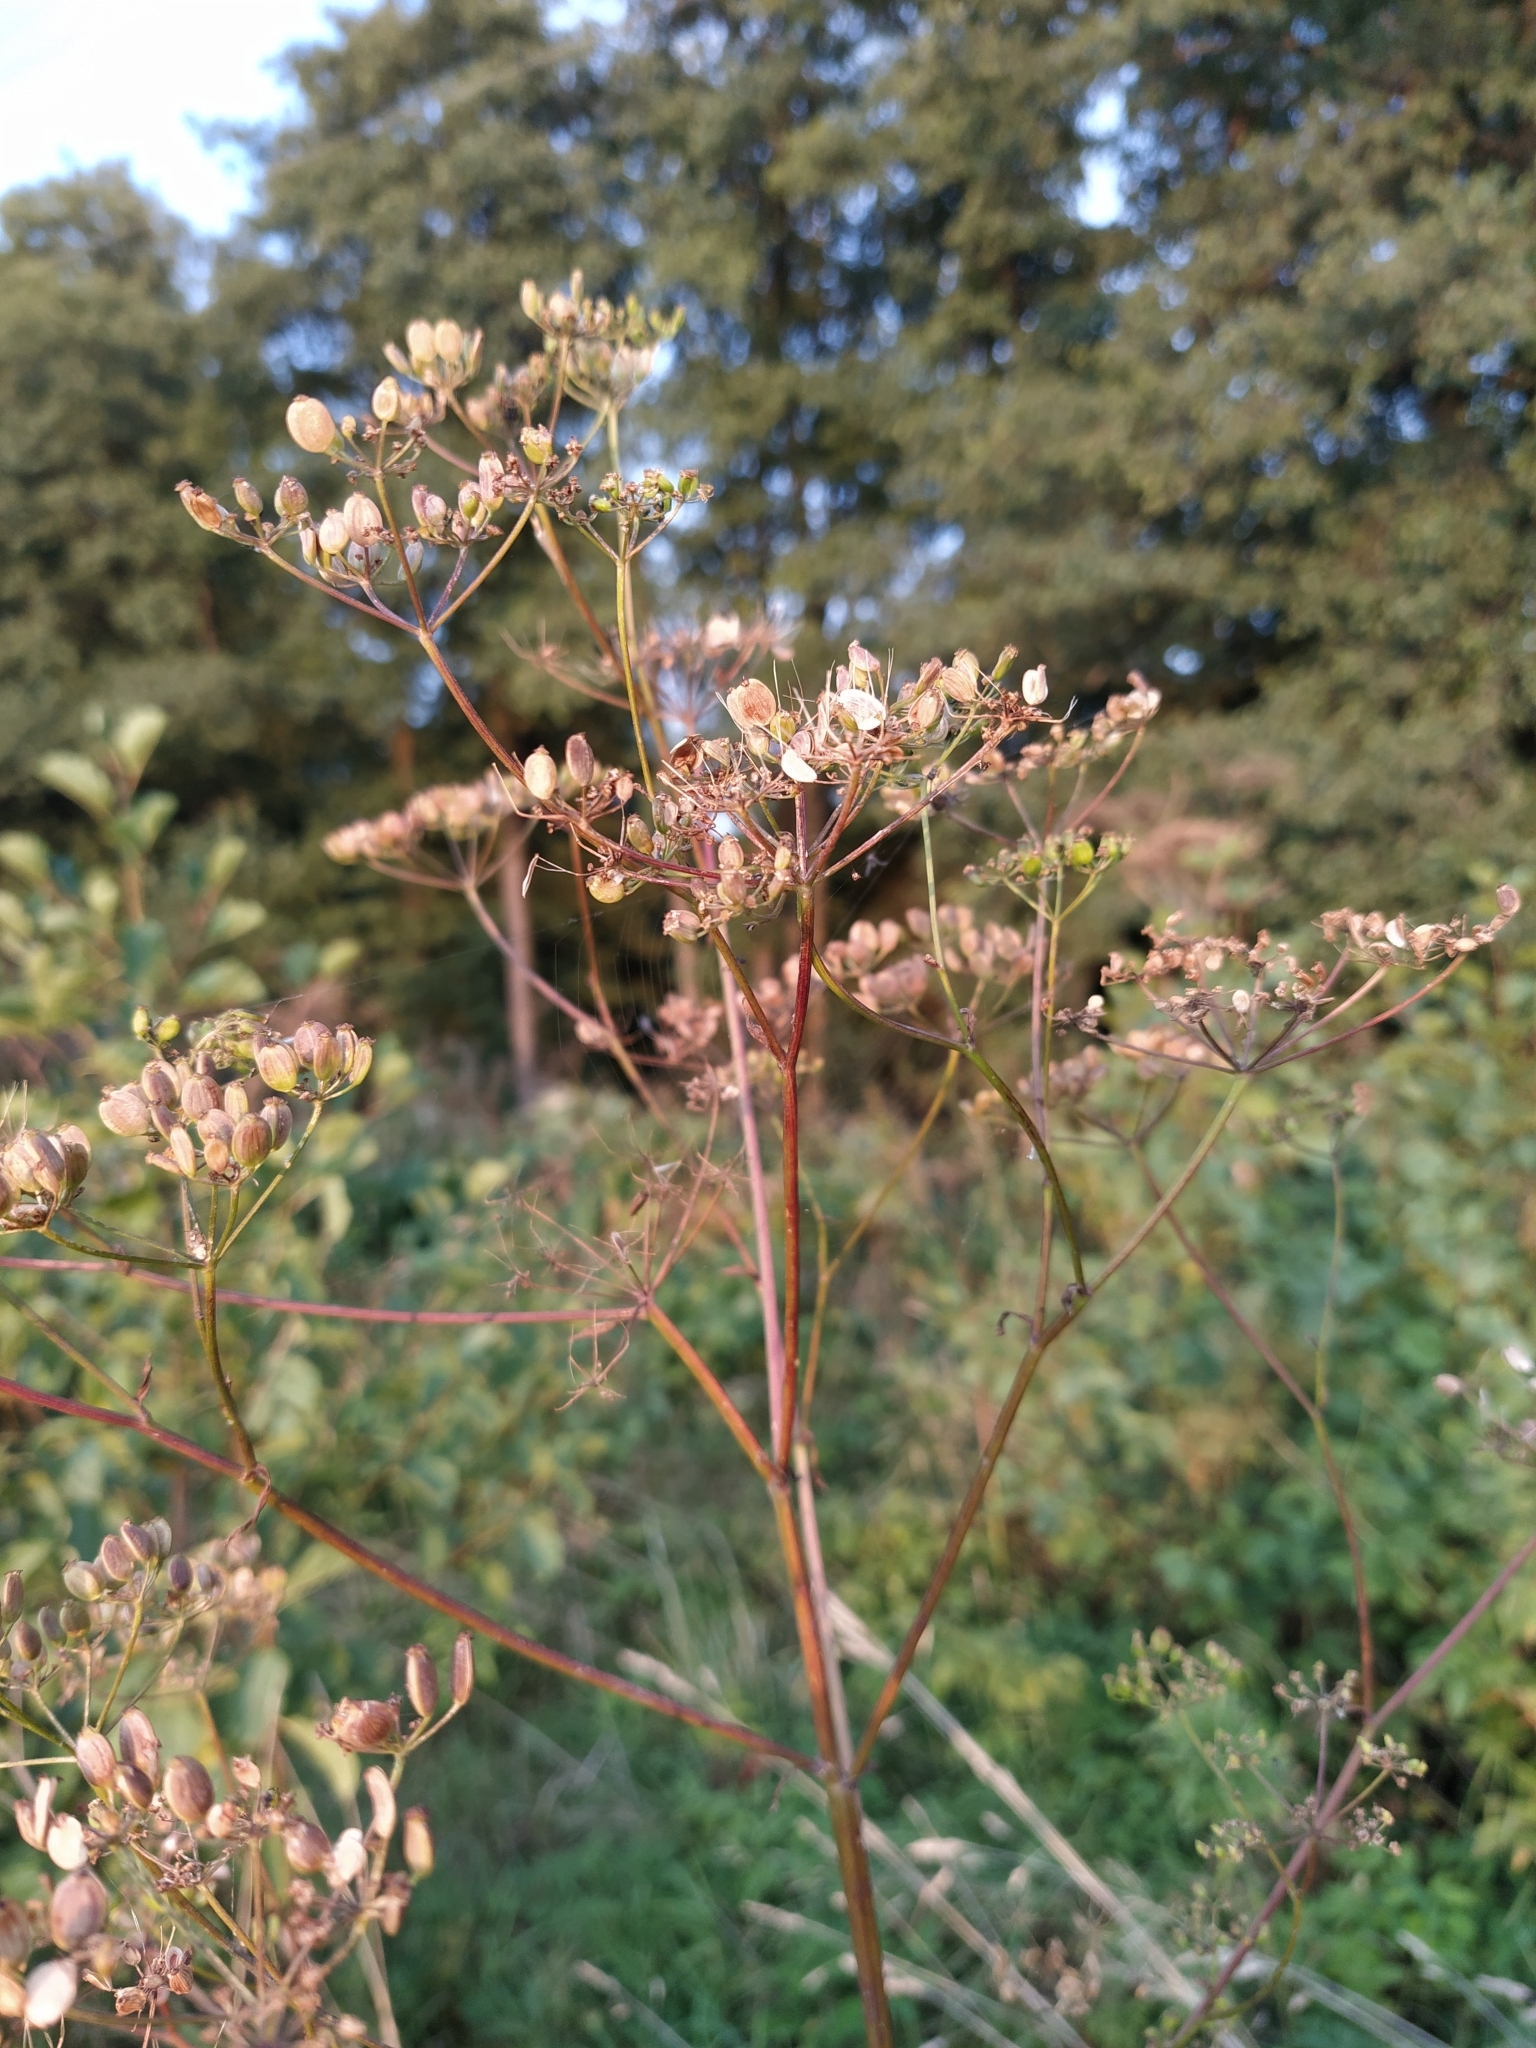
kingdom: Plantae
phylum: Tracheophyta
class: Magnoliopsida
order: Apiales
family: Apiaceae
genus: Pastinaca
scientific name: Pastinaca sativa
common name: Wild parsnip
